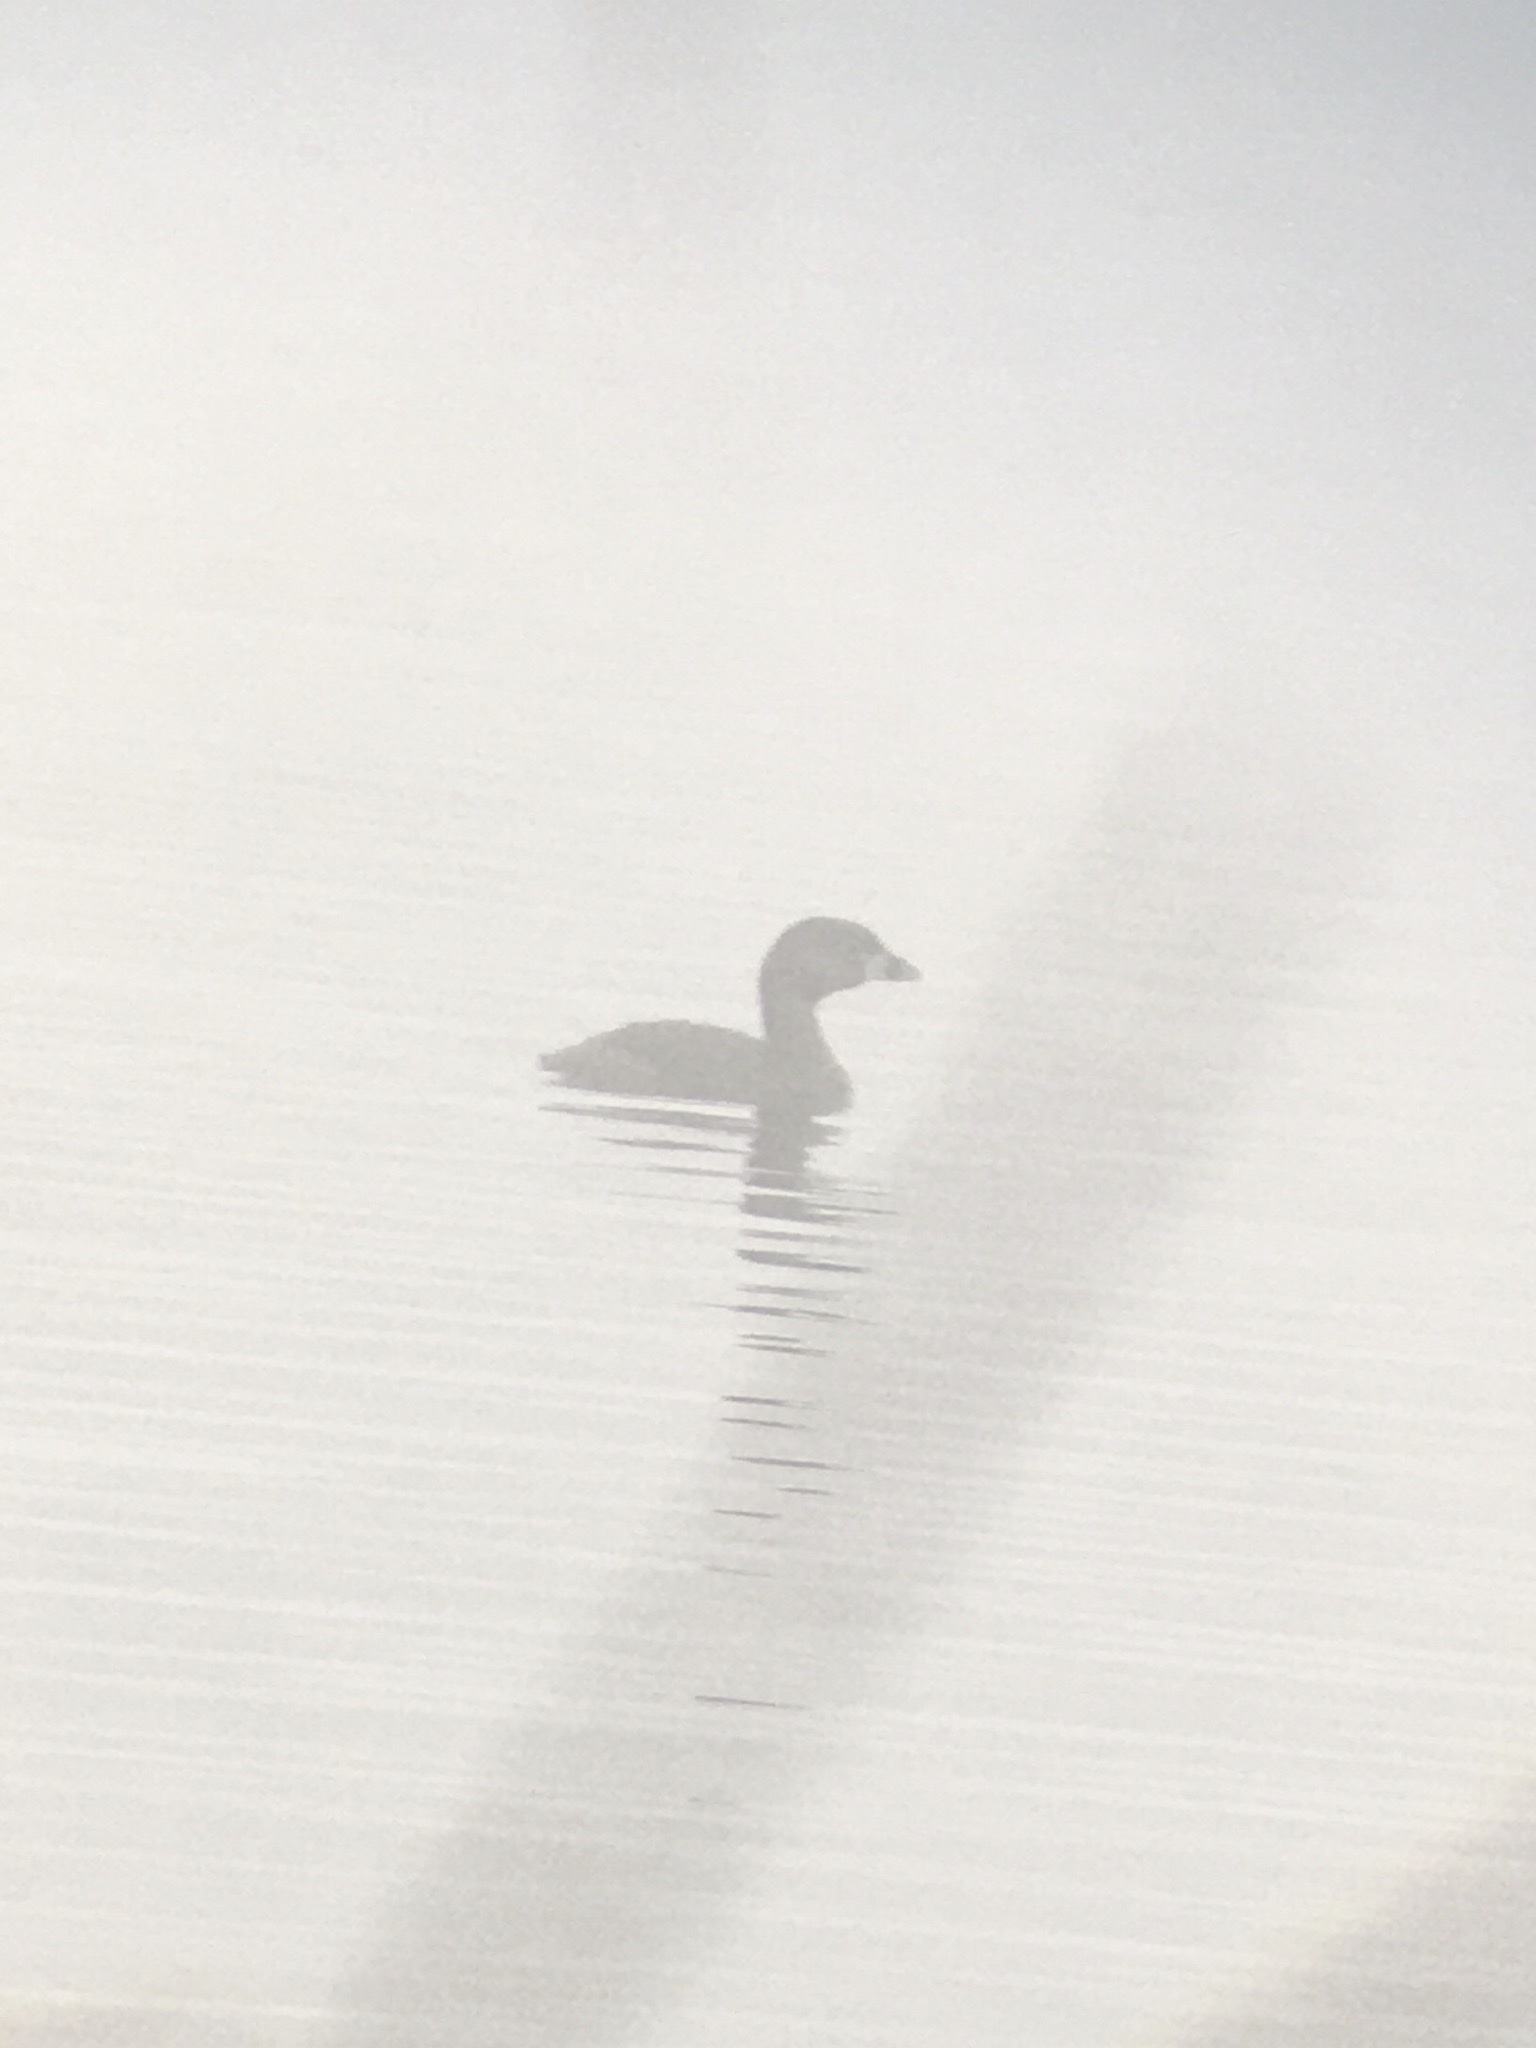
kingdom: Animalia
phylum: Chordata
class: Aves
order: Podicipediformes
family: Podicipedidae
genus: Podilymbus
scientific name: Podilymbus podiceps
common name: Pied-billed grebe
